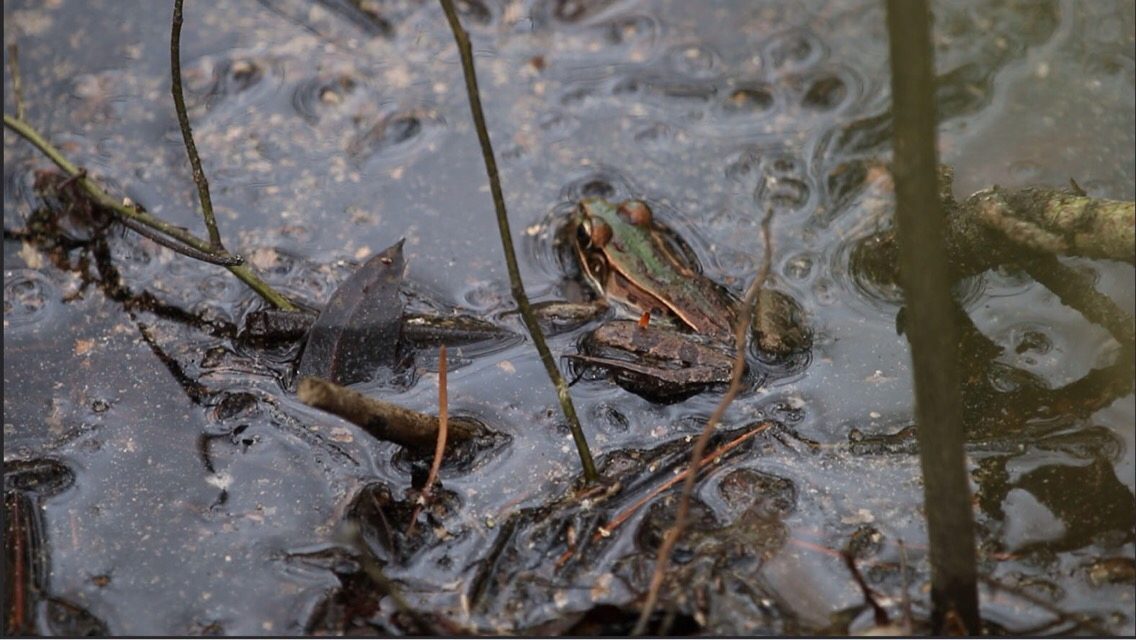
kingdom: Animalia
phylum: Chordata
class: Amphibia
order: Anura
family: Ranidae
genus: Lithobates
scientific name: Lithobates sphenocephalus
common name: Southern leopard frog
